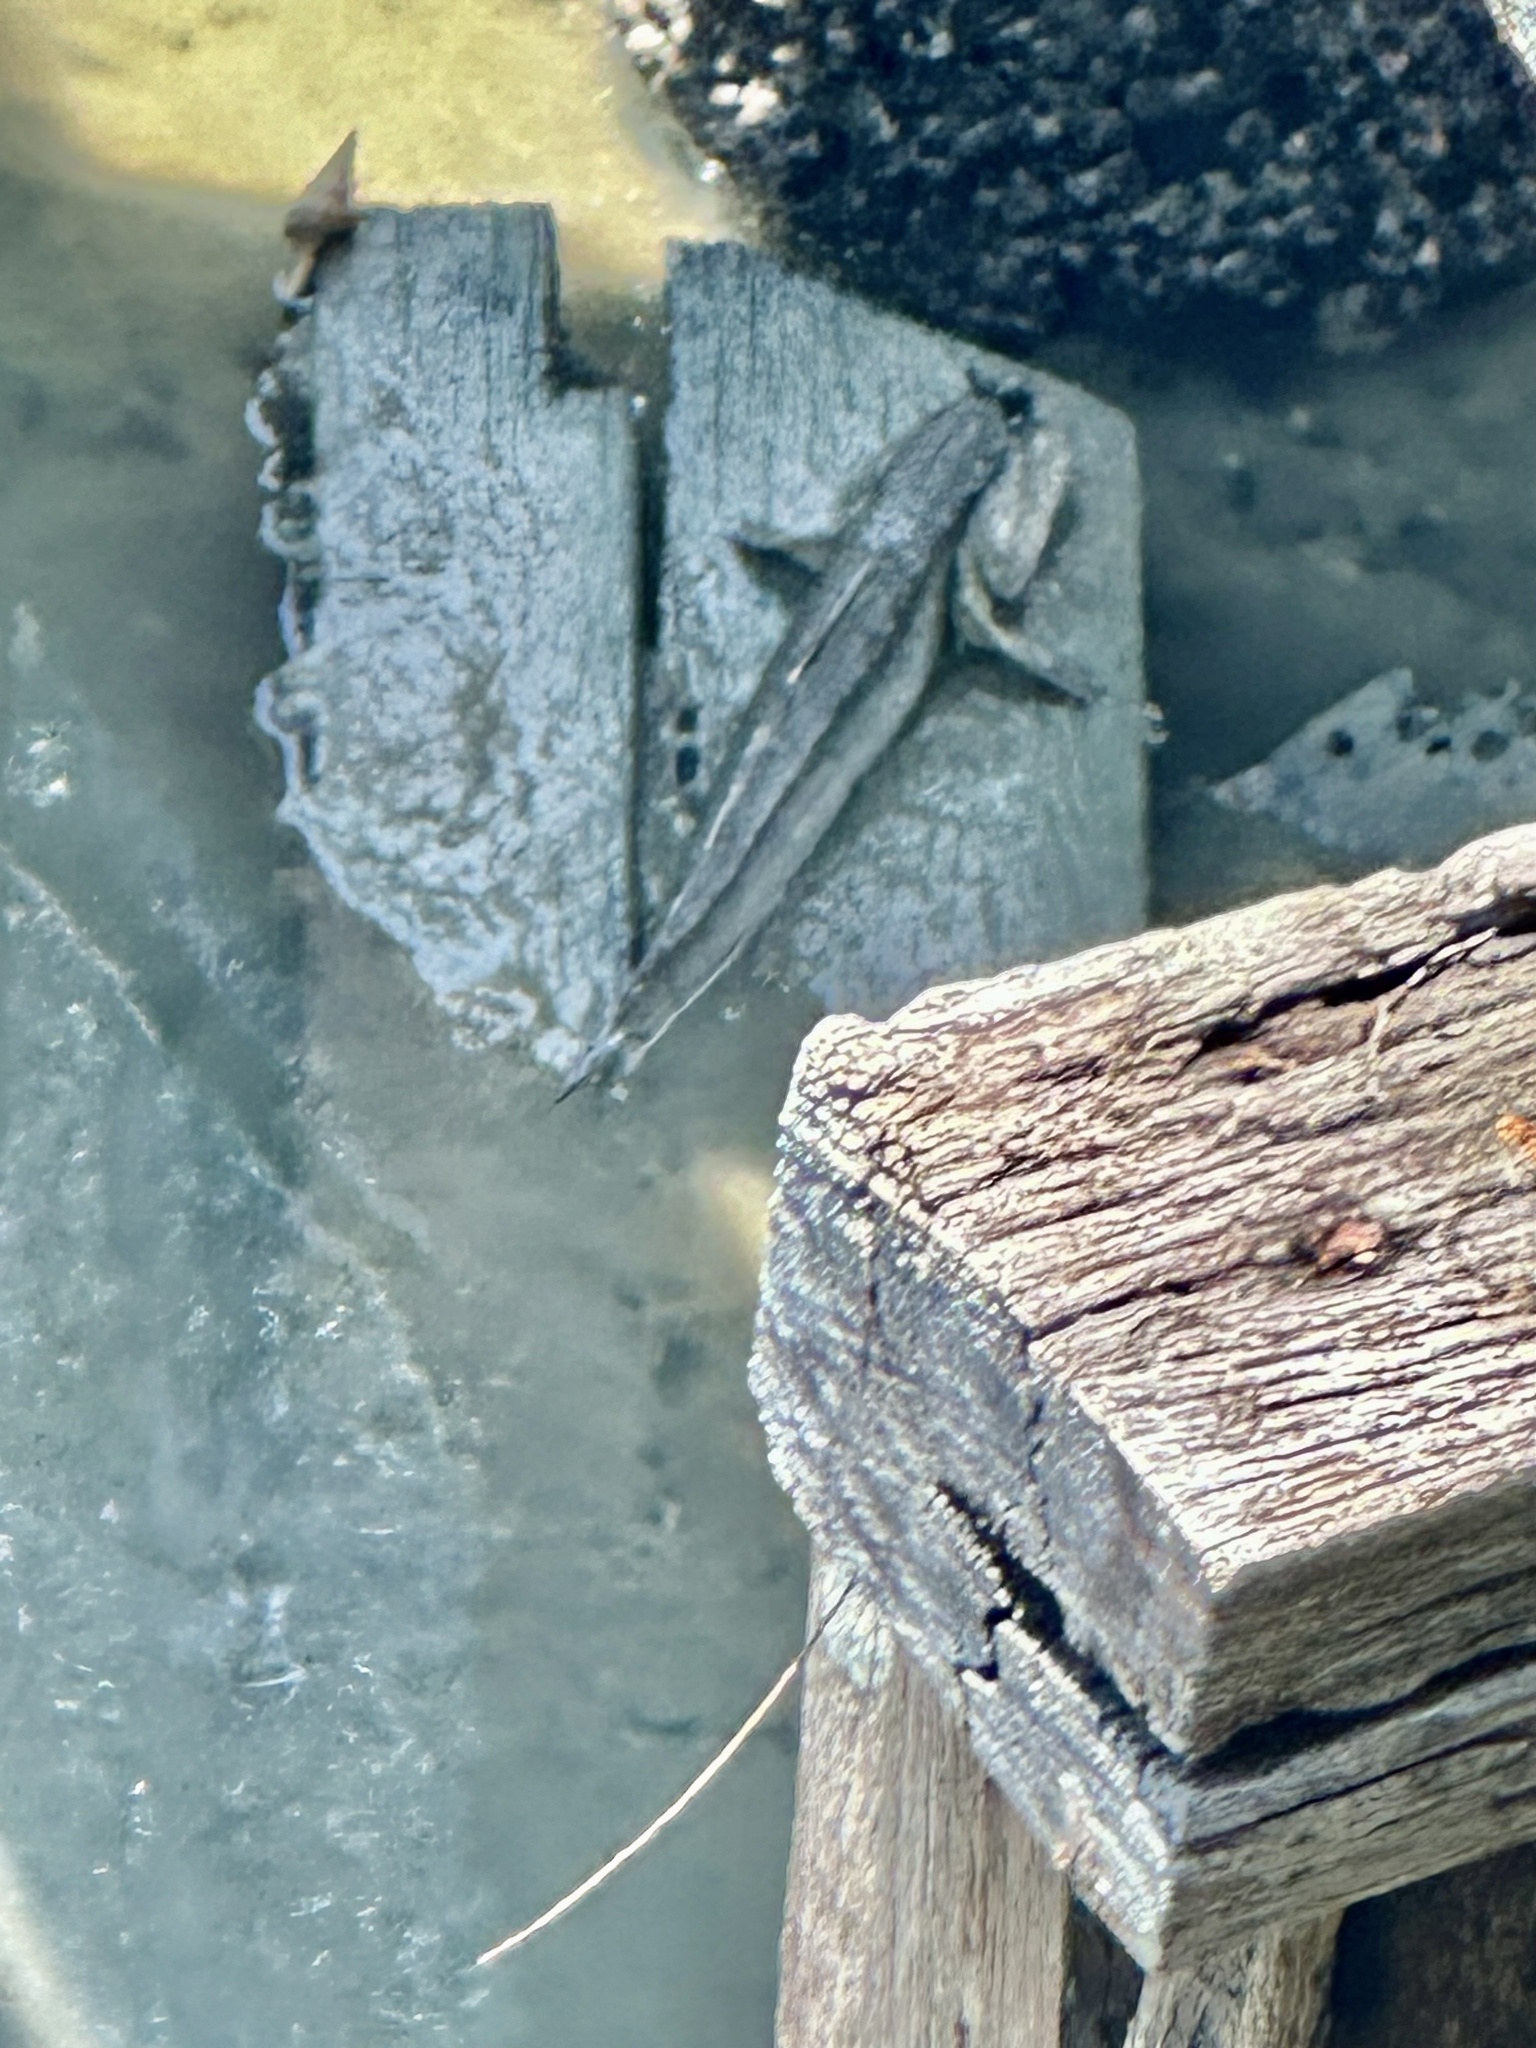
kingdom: Animalia
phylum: Chordata
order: Perciformes
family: Gobiidae
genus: Periophthalmodon
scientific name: Periophthalmodon schlosseri
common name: Giant mudskipper
